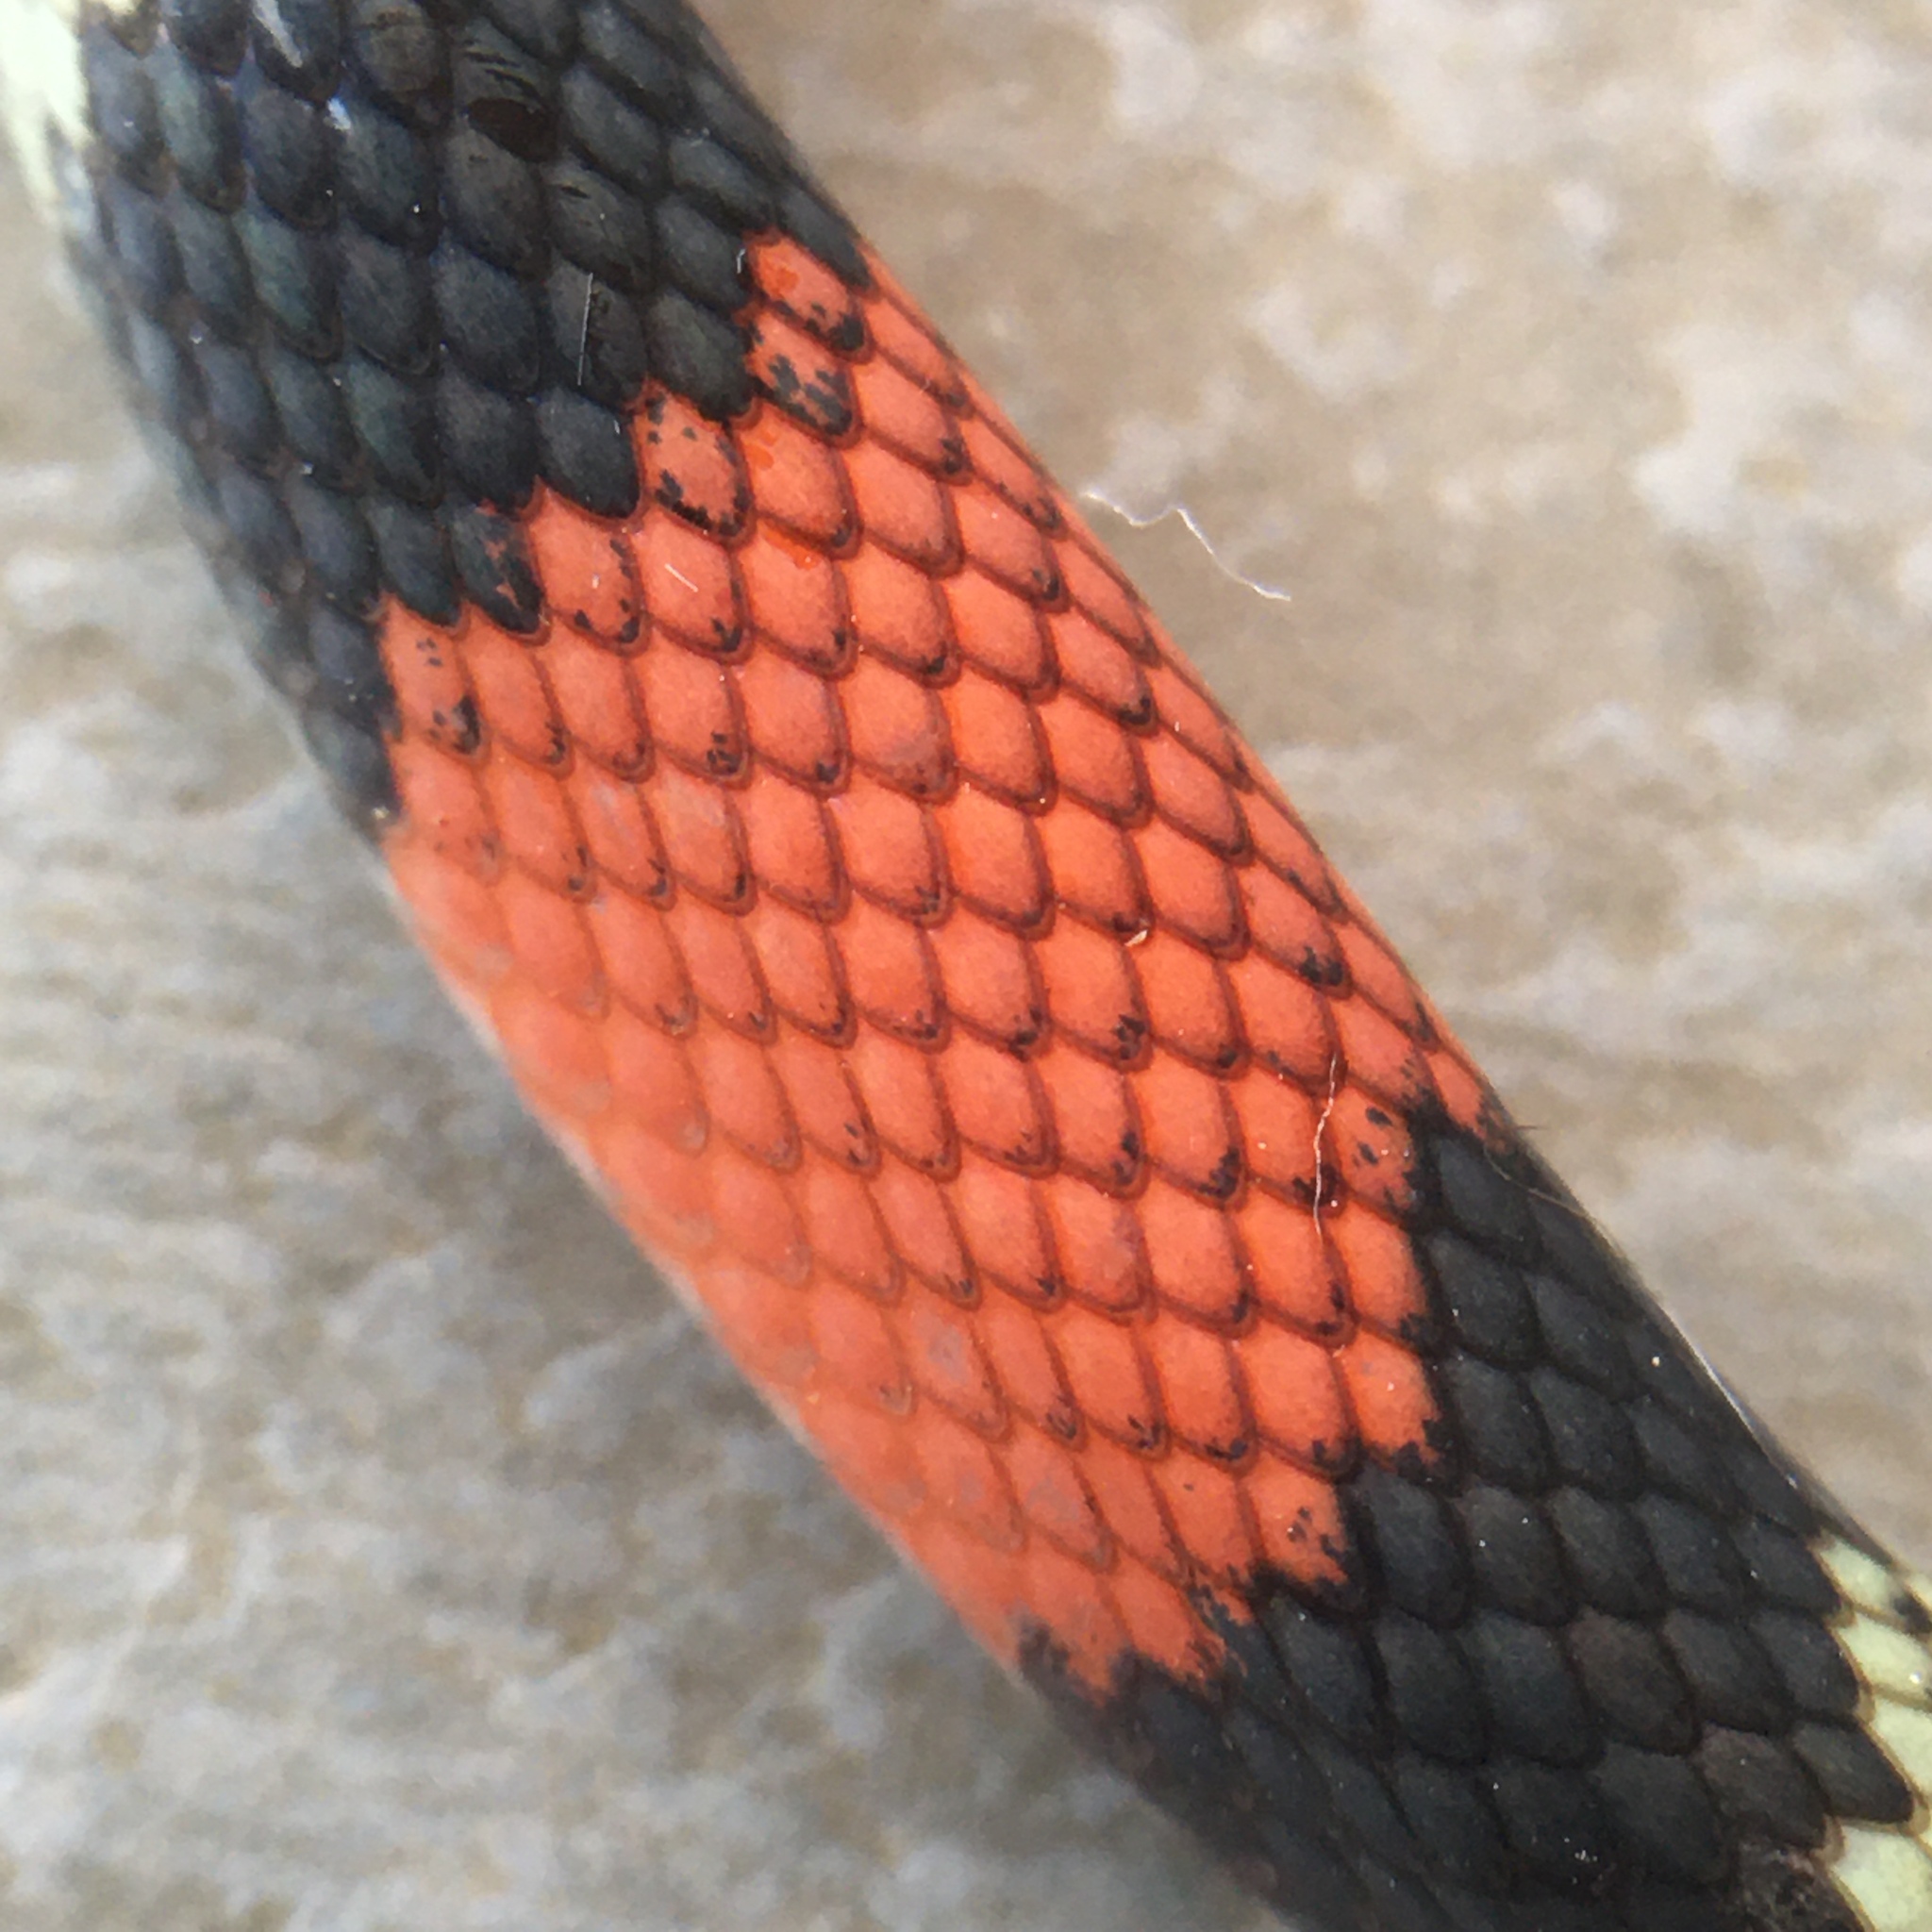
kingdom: Animalia
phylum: Chordata
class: Squamata
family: Colubridae
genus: Oxyrhopus
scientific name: Oxyrhopus guibei
